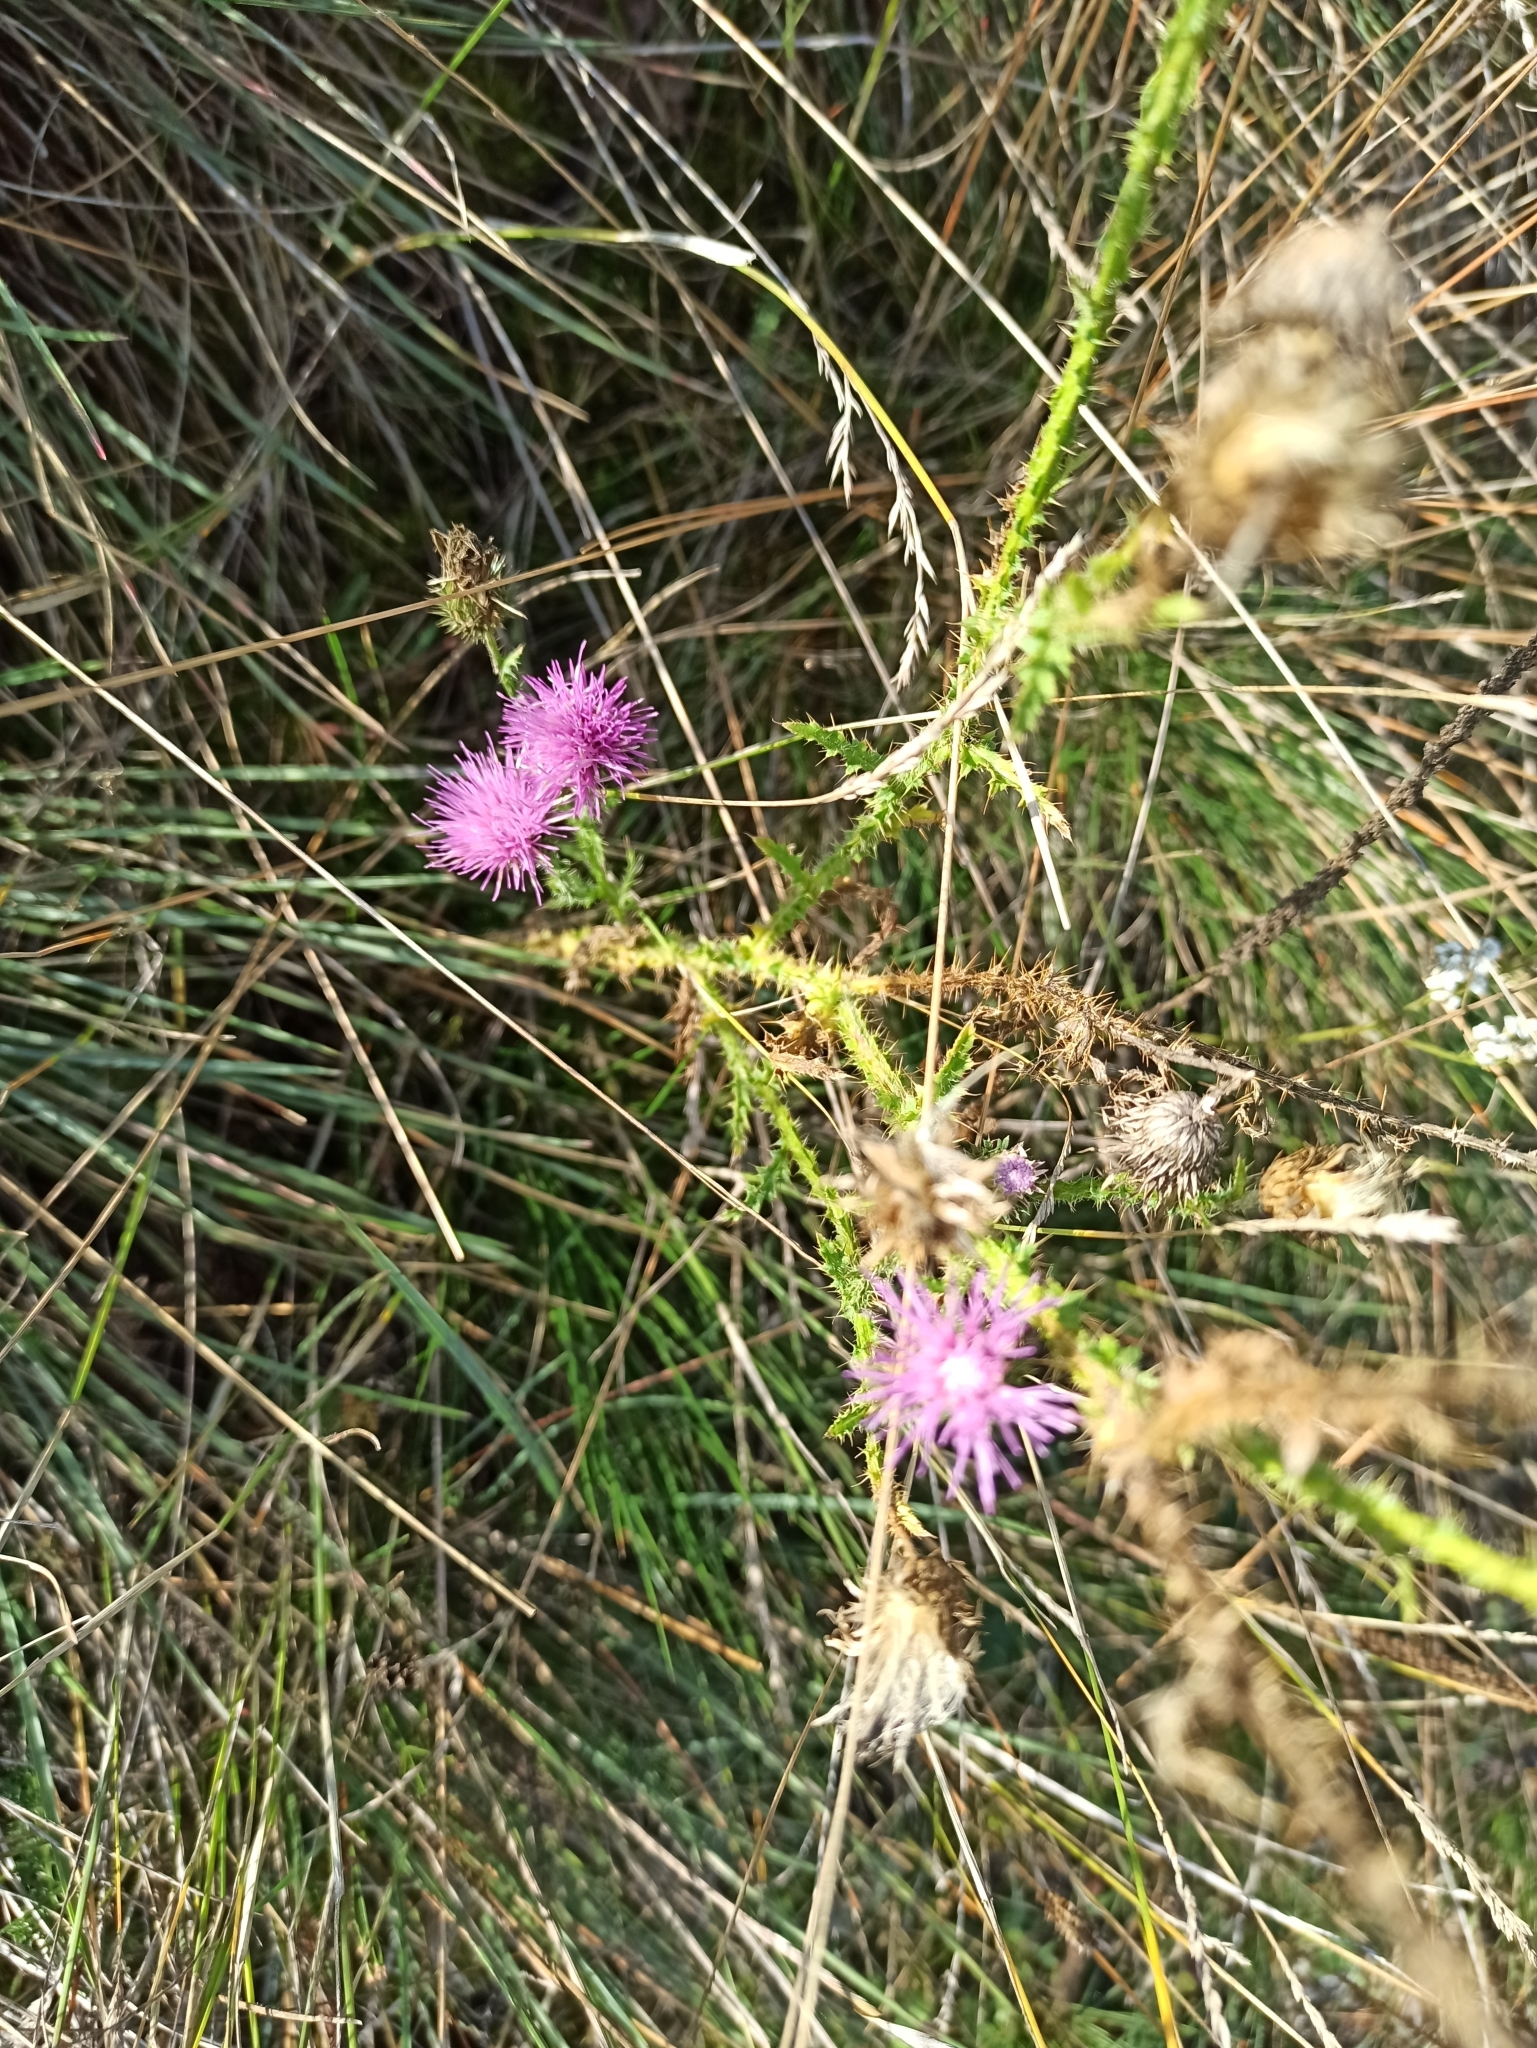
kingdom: Plantae
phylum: Tracheophyta
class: Magnoliopsida
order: Asterales
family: Asteraceae
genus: Carduus
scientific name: Carduus acanthoides
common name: Plumeless thistle
